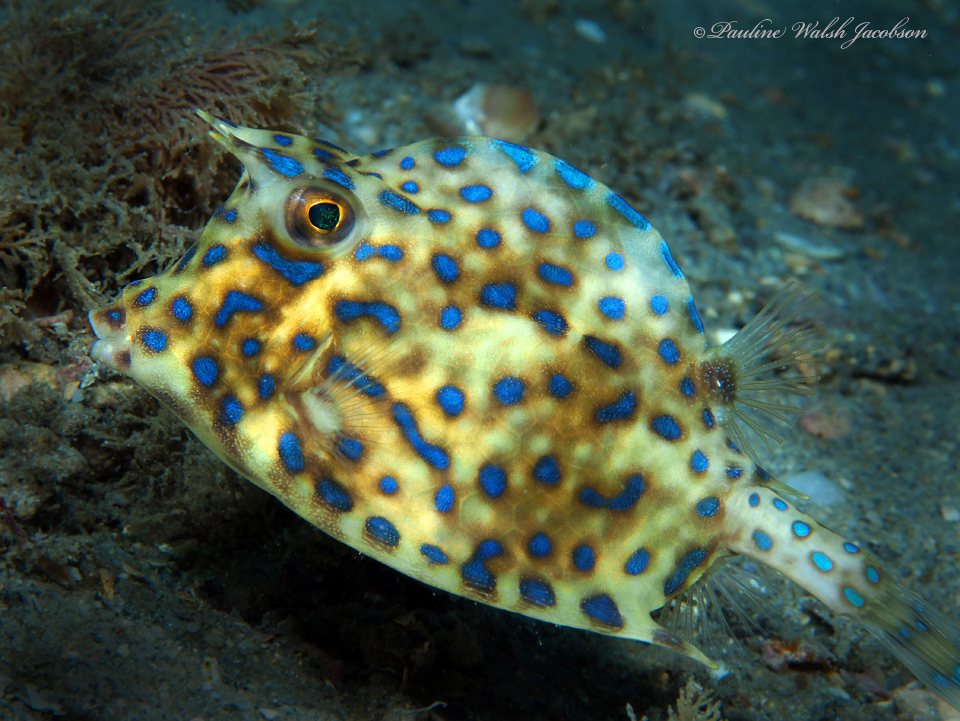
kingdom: Animalia
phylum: Chordata
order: Tetraodontiformes
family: Ostraciidae
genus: Acanthostracion
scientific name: Acanthostracion quadricornis
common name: Scrawled cowfish
